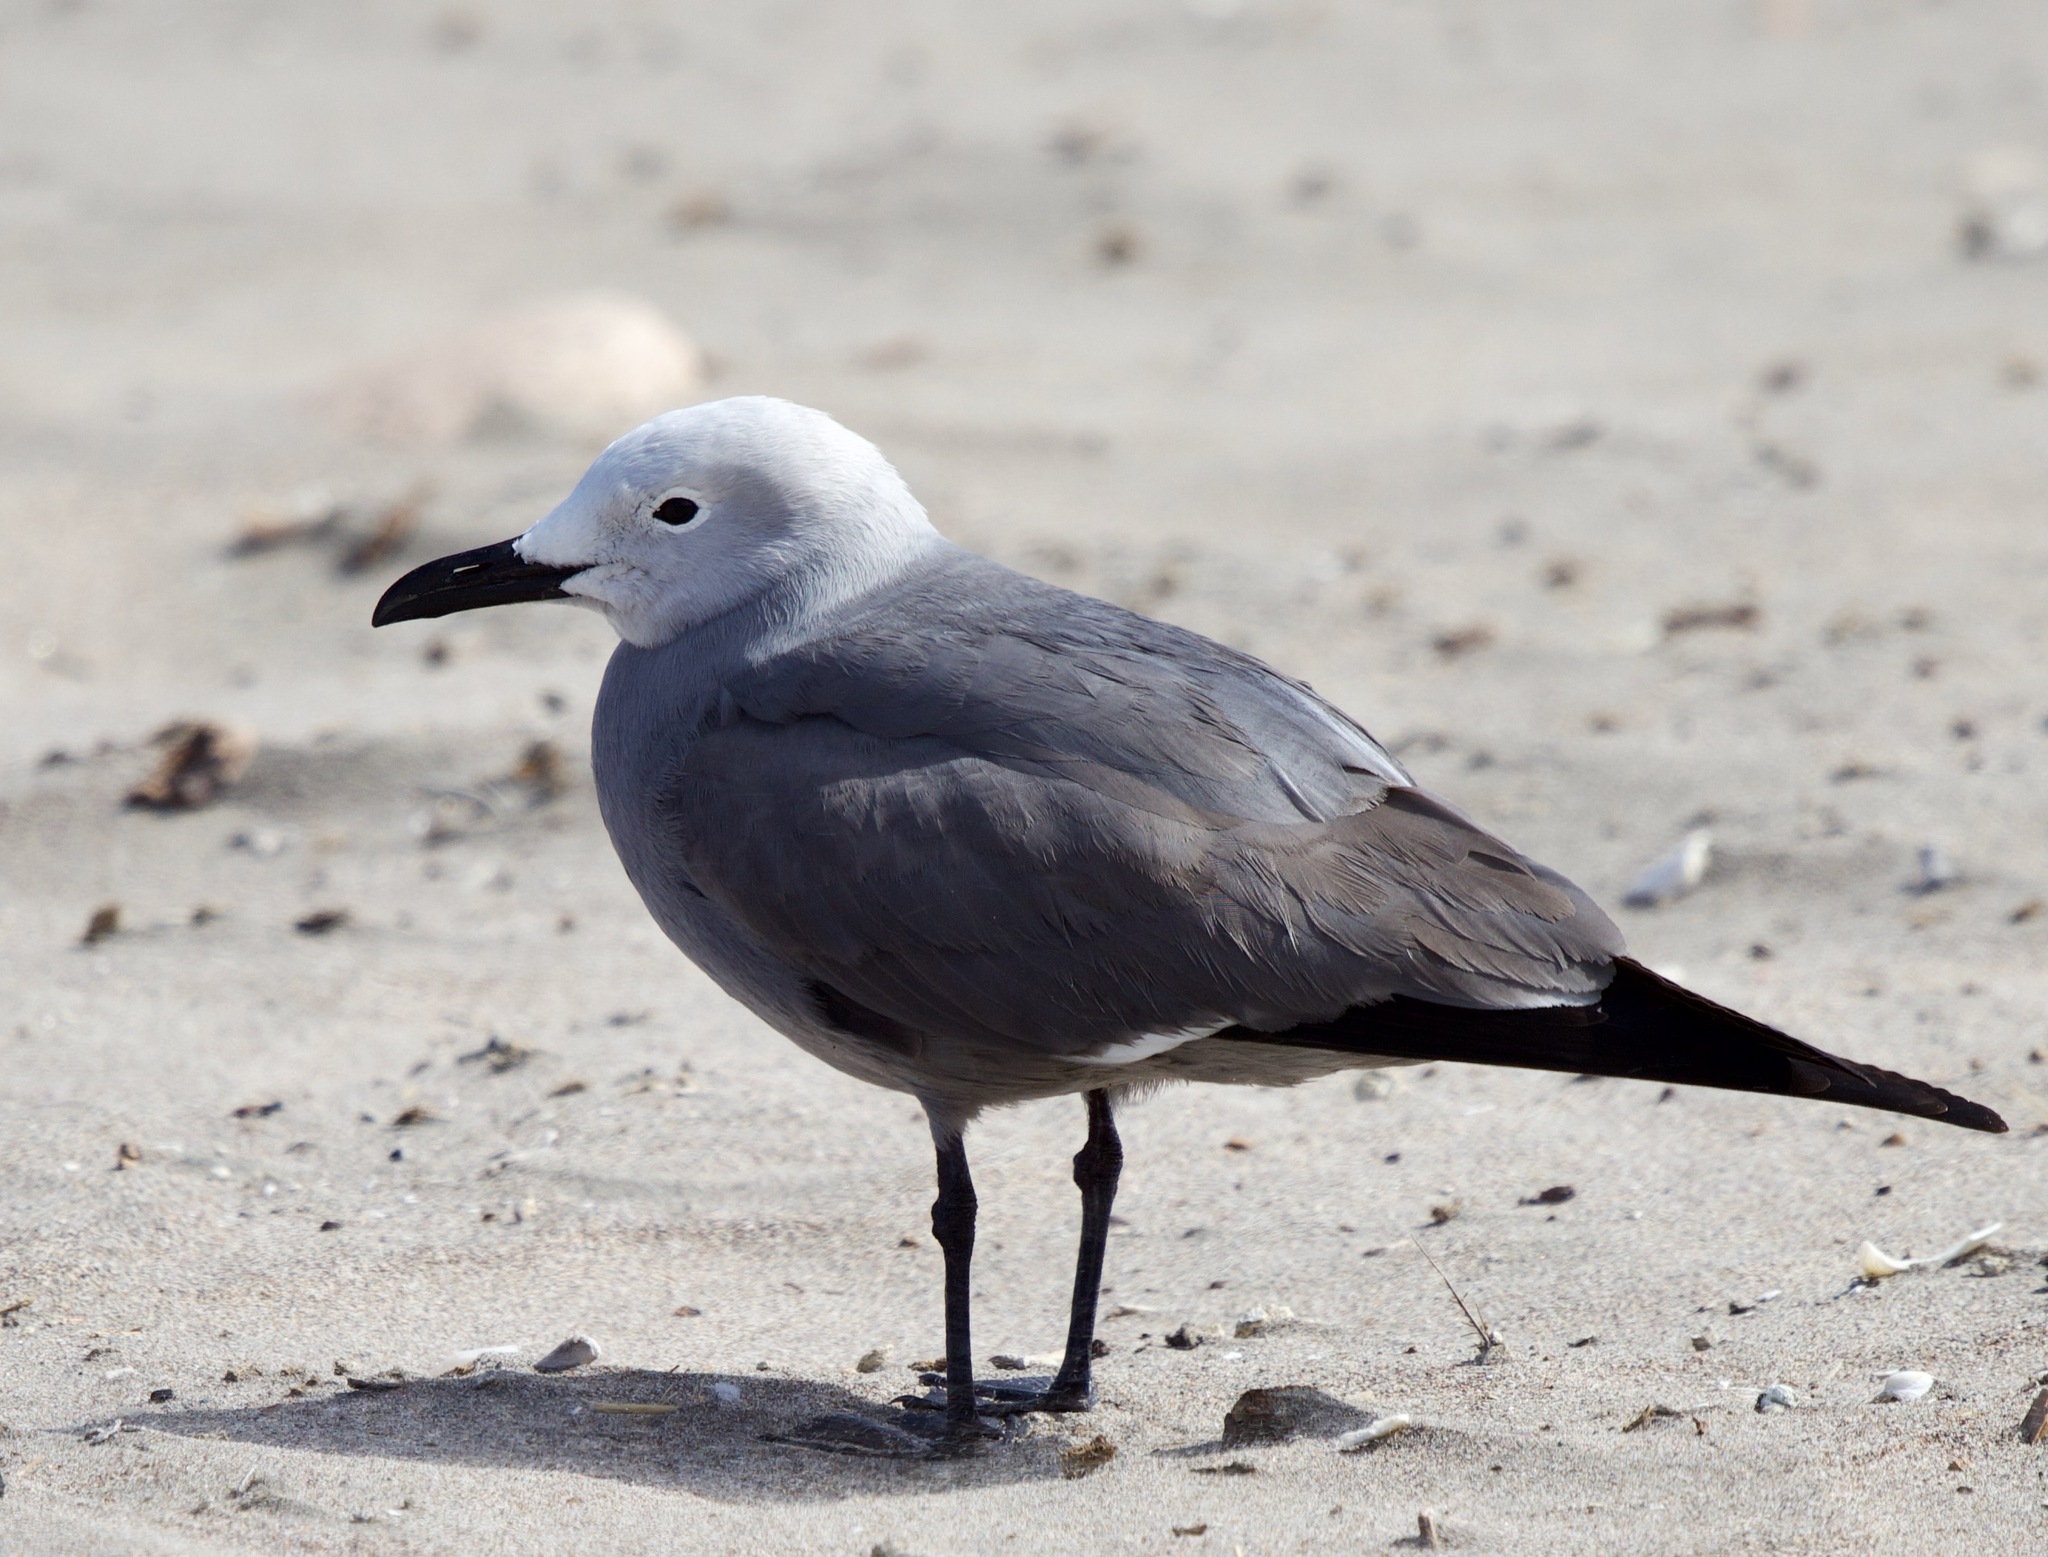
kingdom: Animalia
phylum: Chordata
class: Aves
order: Charadriiformes
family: Laridae
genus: Leucophaeus
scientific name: Leucophaeus modestus
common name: Gray gull
